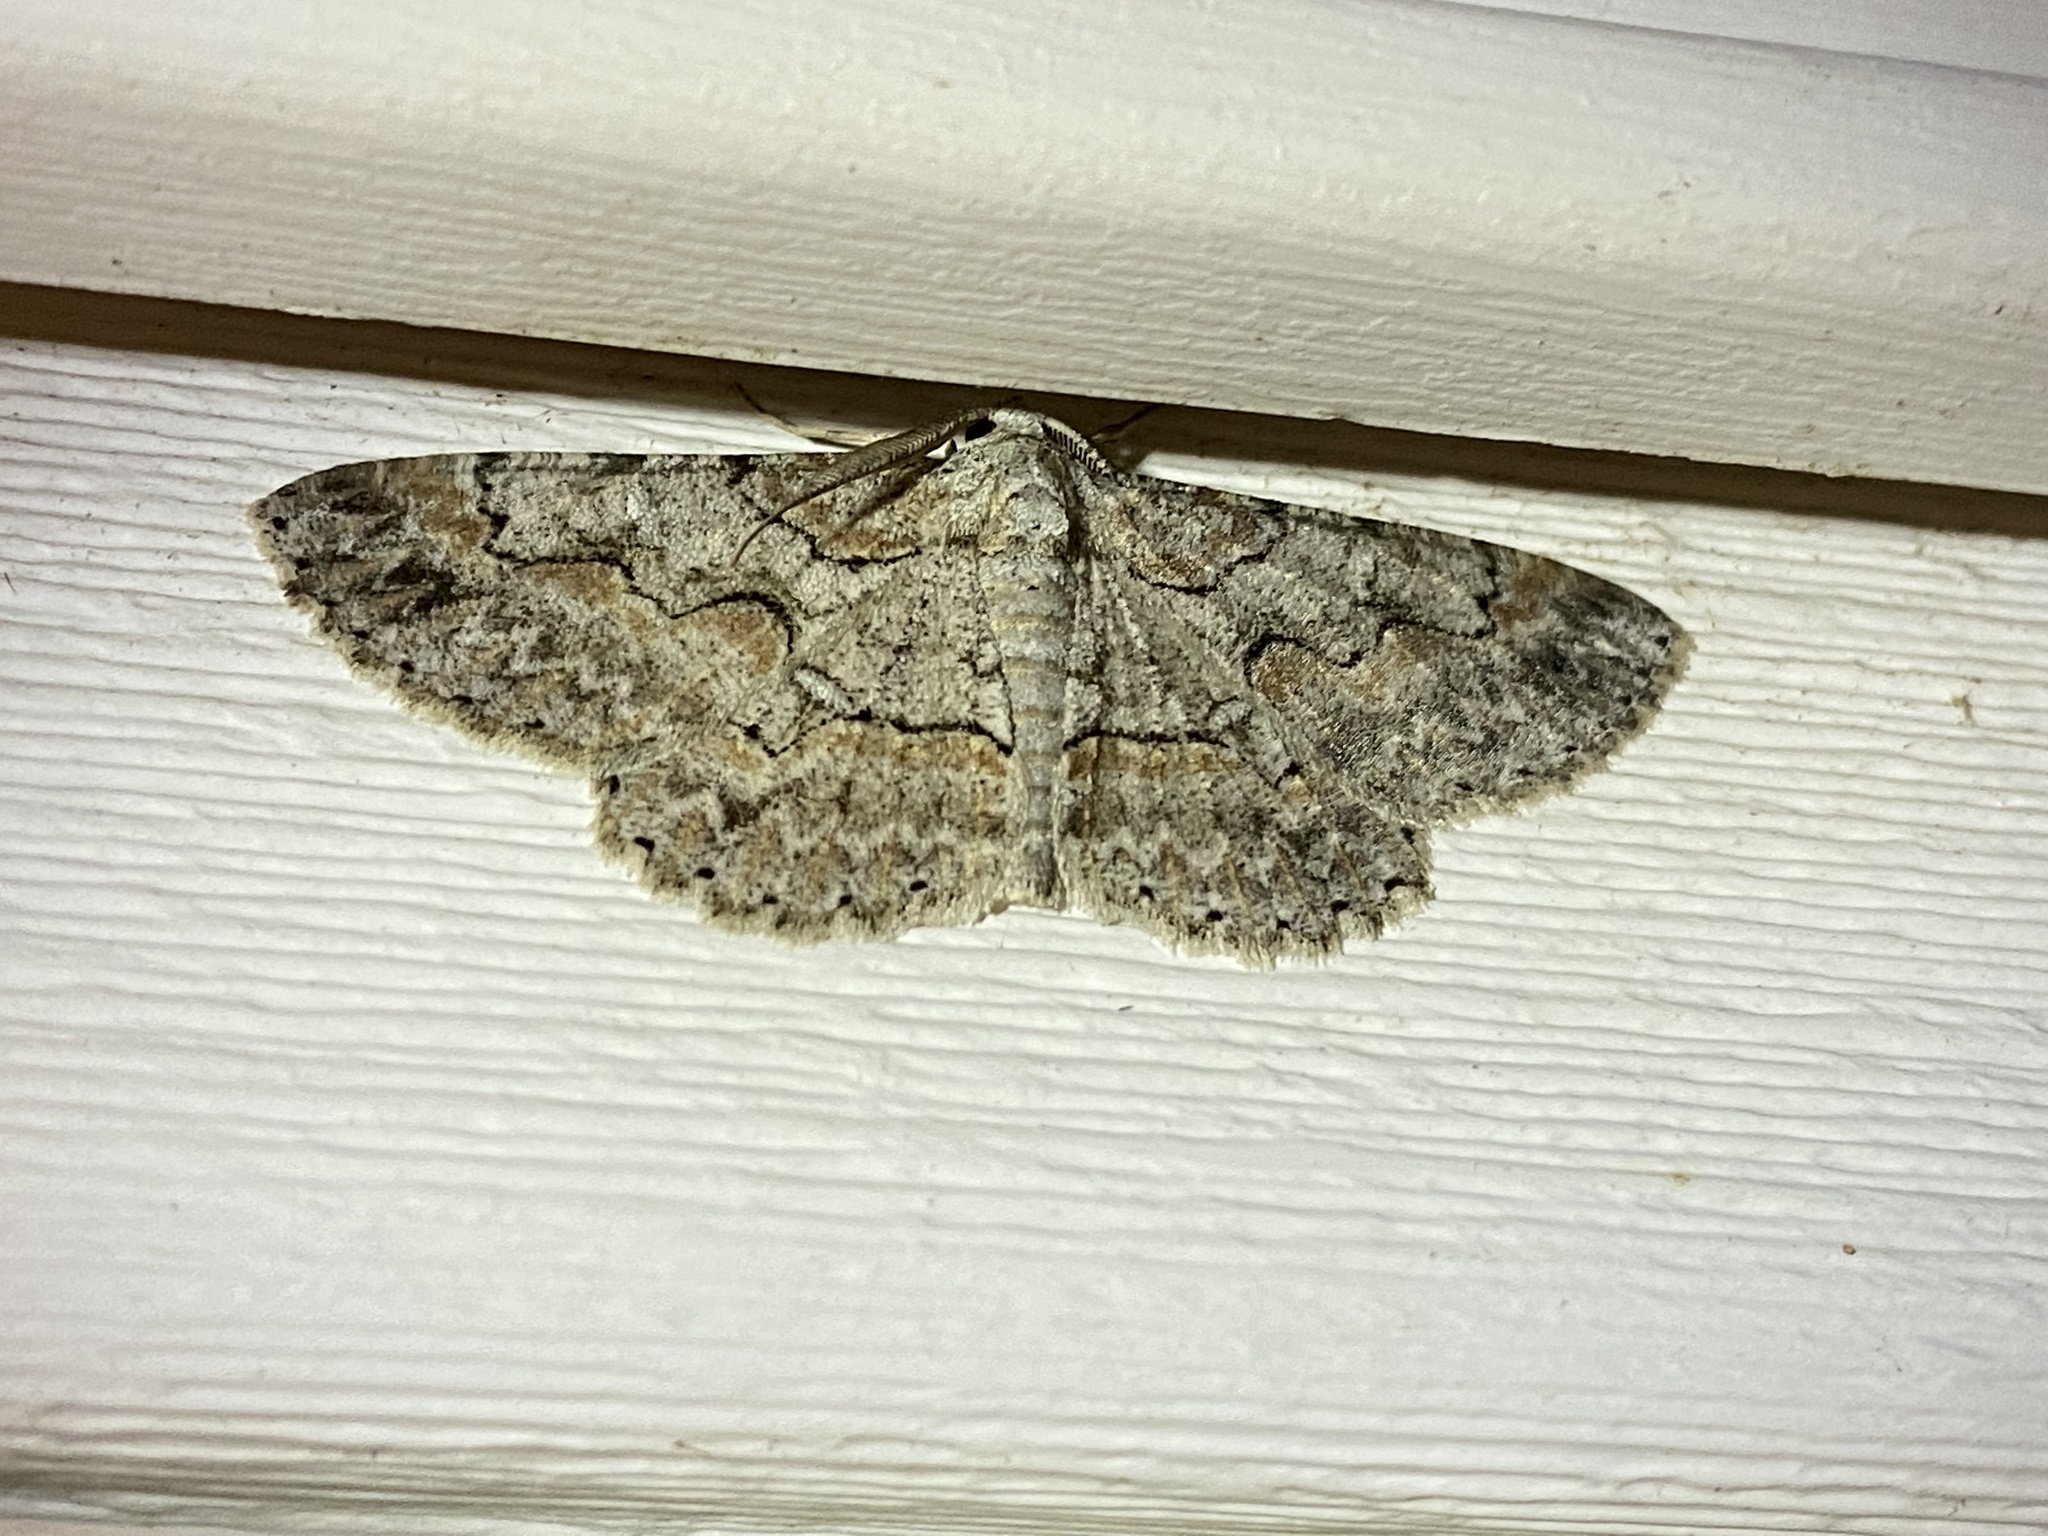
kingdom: Animalia
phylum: Arthropoda
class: Insecta
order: Lepidoptera
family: Geometridae
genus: Iridopsis
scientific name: Iridopsis defectaria
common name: Brown-shaded gray
